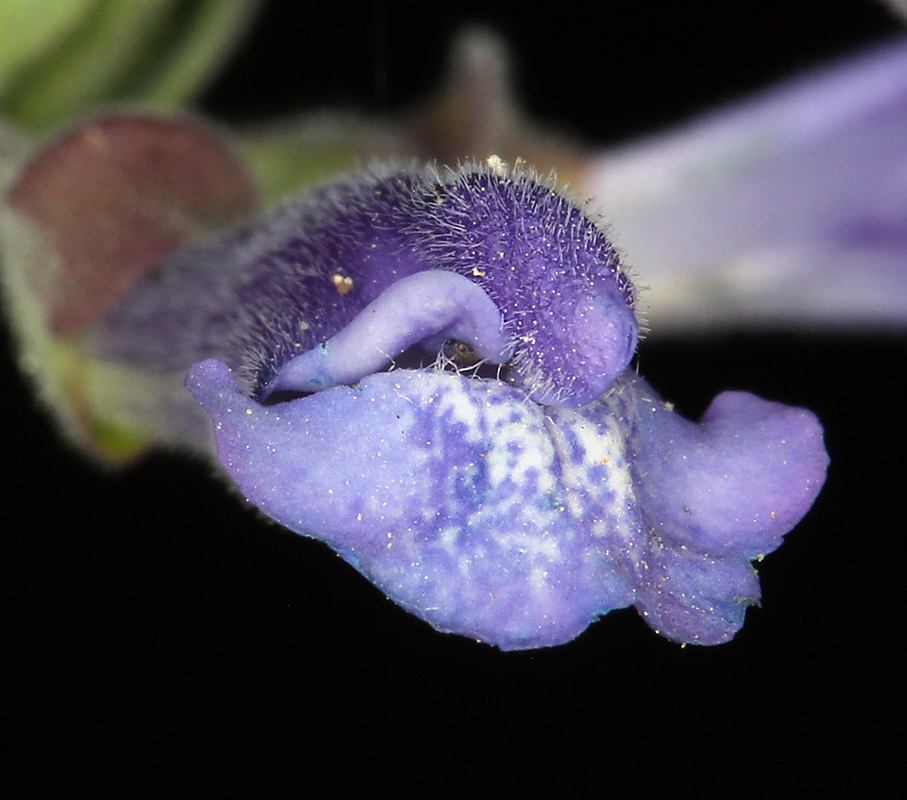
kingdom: Plantae
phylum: Tracheophyta
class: Magnoliopsida
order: Lamiales
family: Lamiaceae
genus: Scutellaria
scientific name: Scutellaria antirrhinoides
